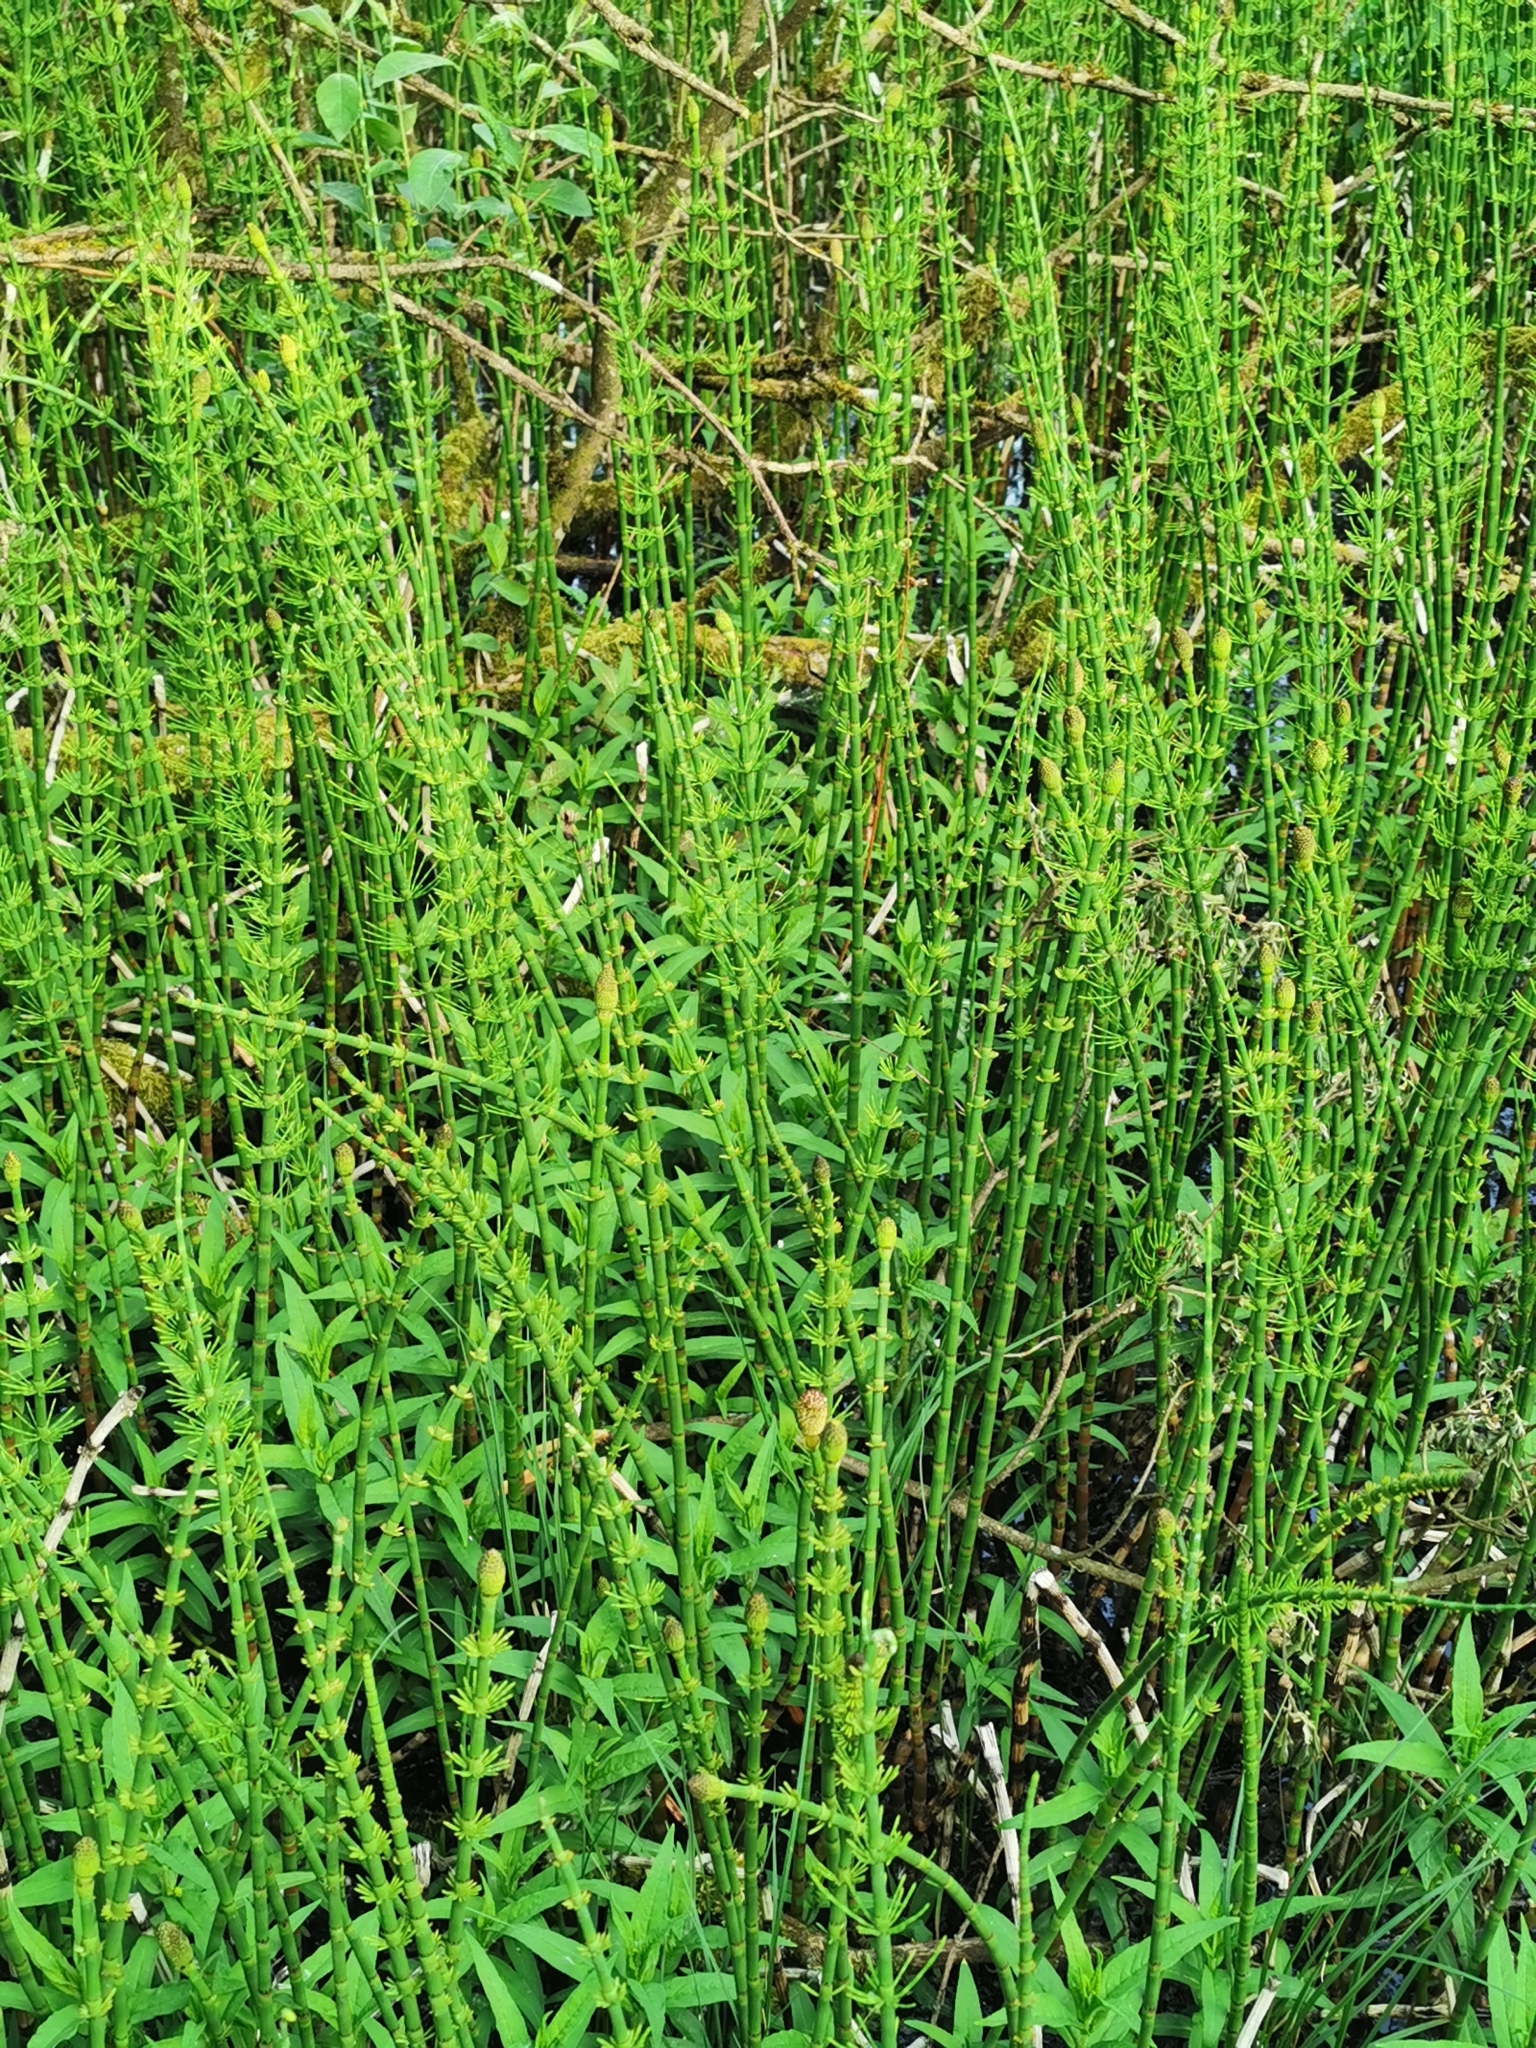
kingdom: Plantae
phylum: Tracheophyta
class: Polypodiopsida
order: Equisetales
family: Equisetaceae
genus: Equisetum
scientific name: Equisetum fluviatile
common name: Water horsetail
